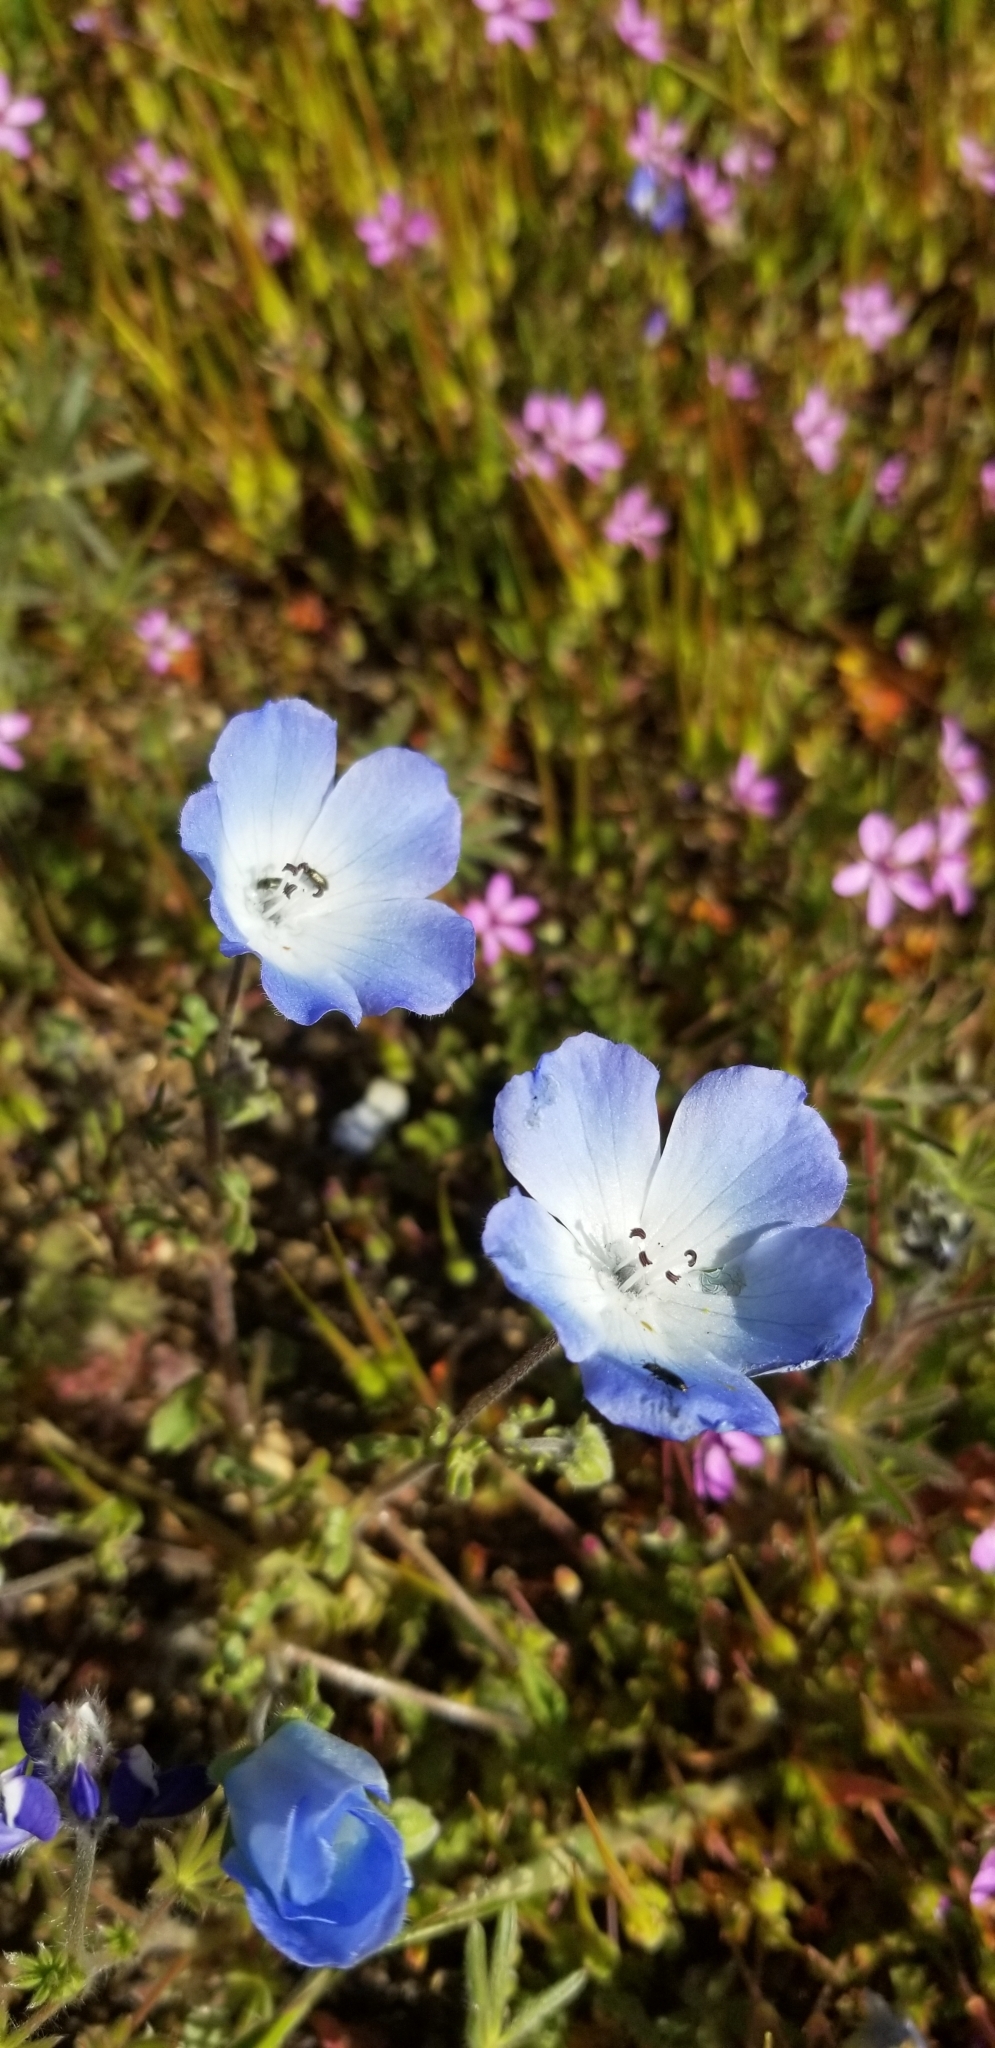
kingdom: Plantae
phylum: Tracheophyta
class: Magnoliopsida
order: Boraginales
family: Hydrophyllaceae
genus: Nemophila
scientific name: Nemophila menziesii
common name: Baby's-blue-eyes
